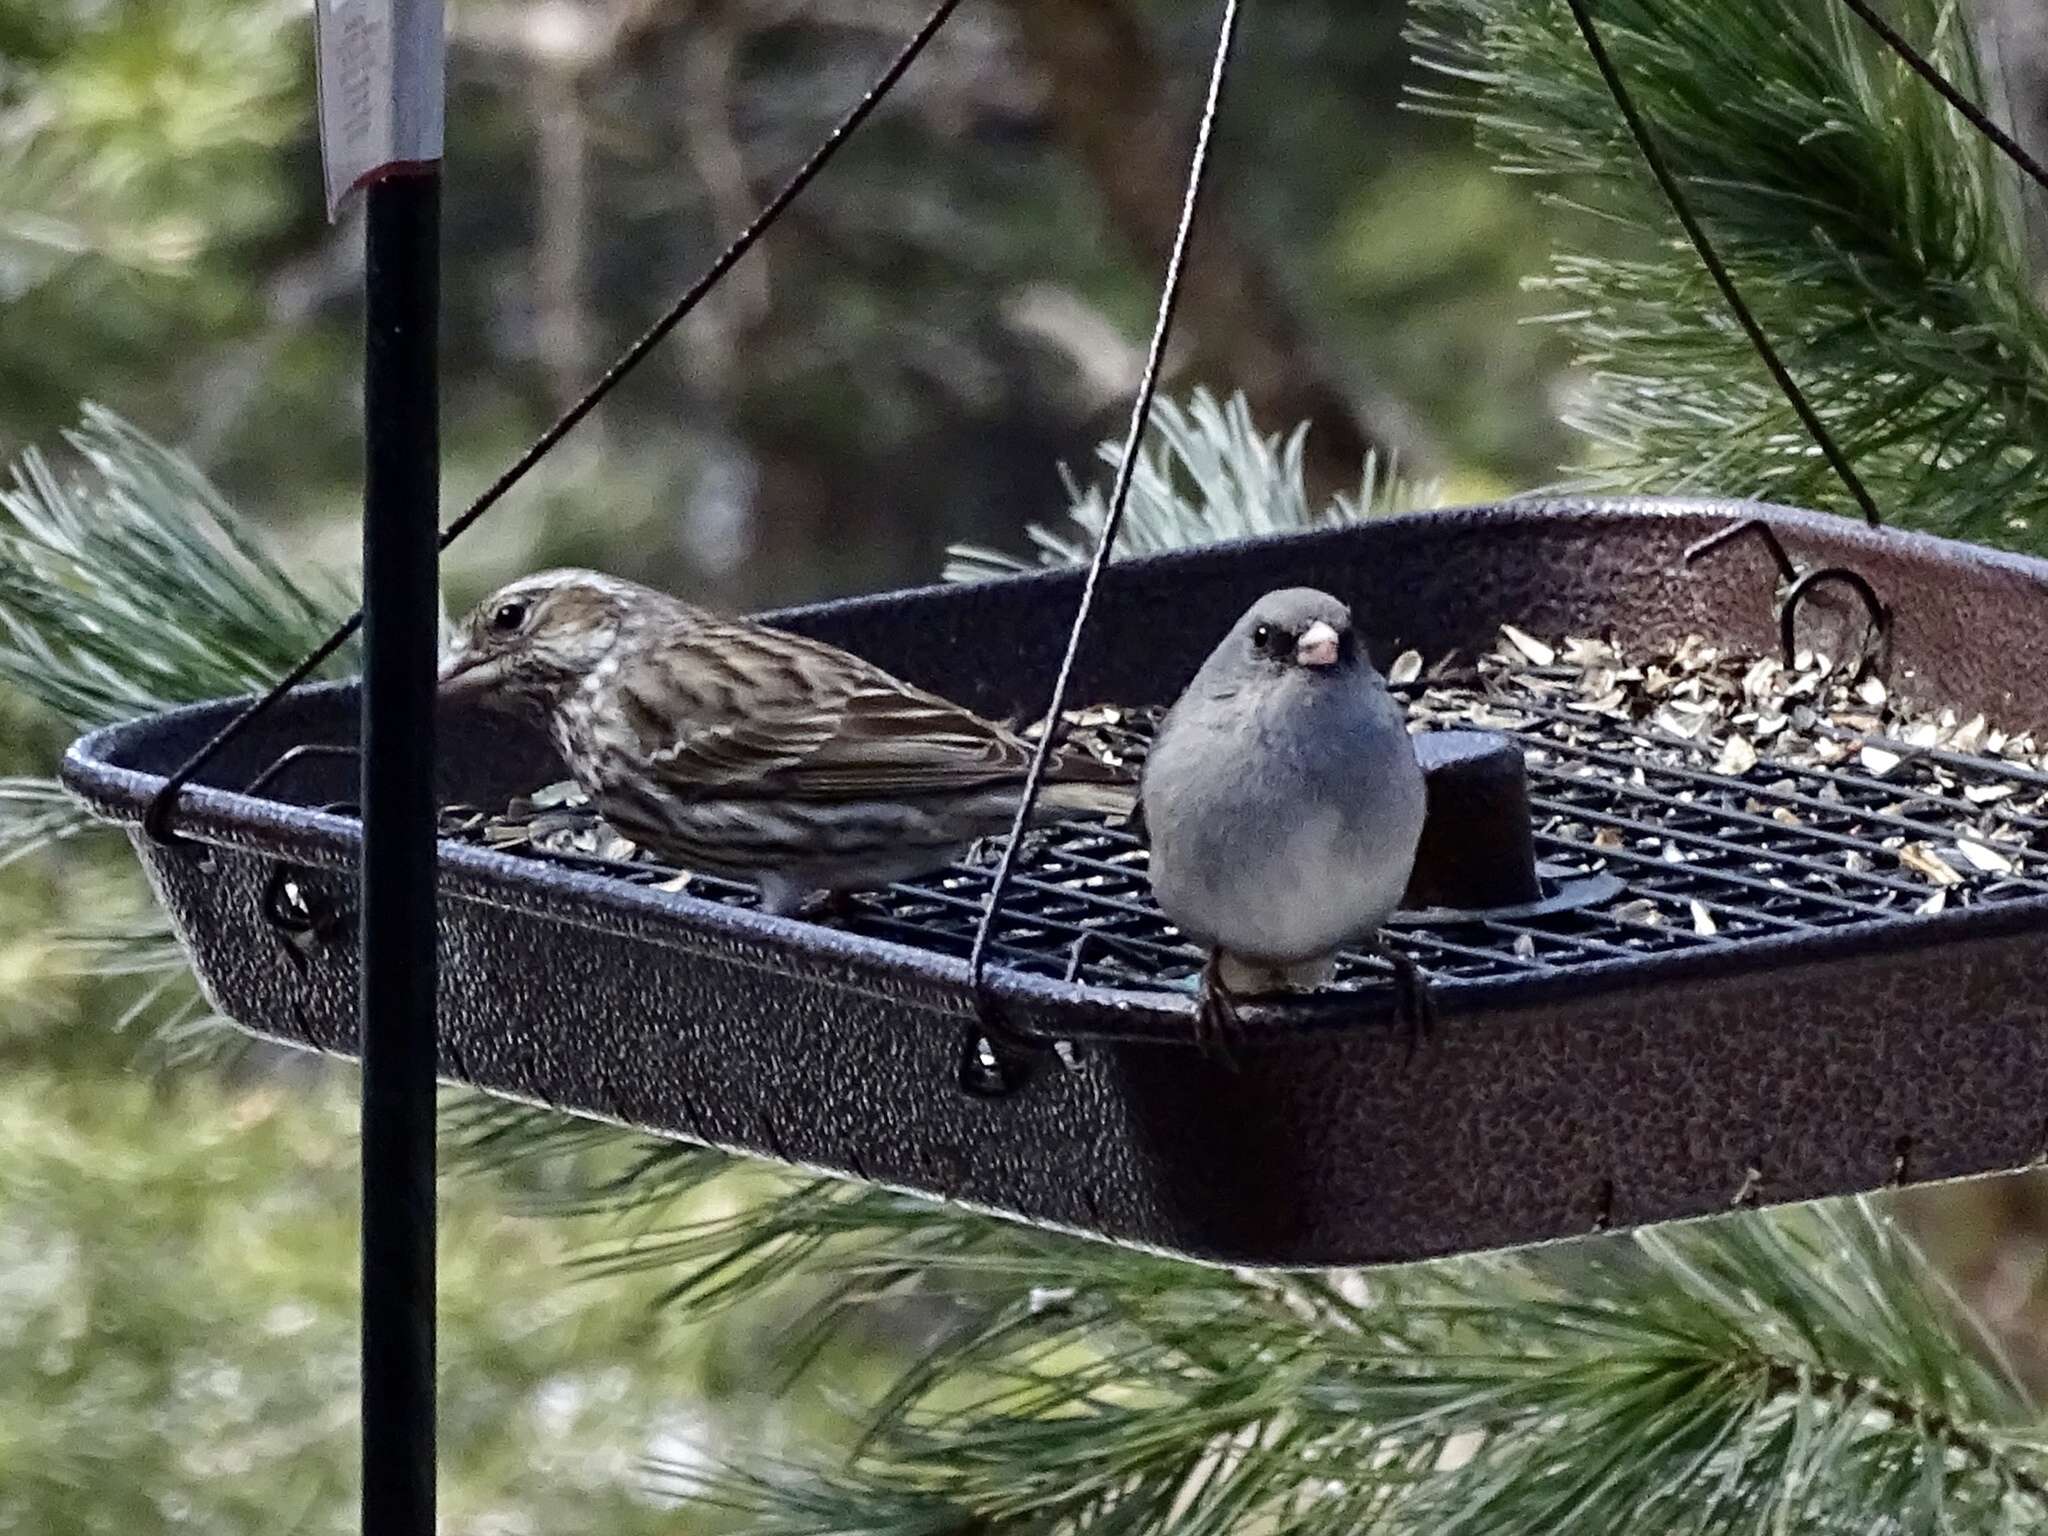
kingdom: Animalia
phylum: Chordata
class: Aves
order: Passeriformes
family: Passerellidae
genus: Junco
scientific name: Junco hyemalis
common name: Dark-eyed junco
